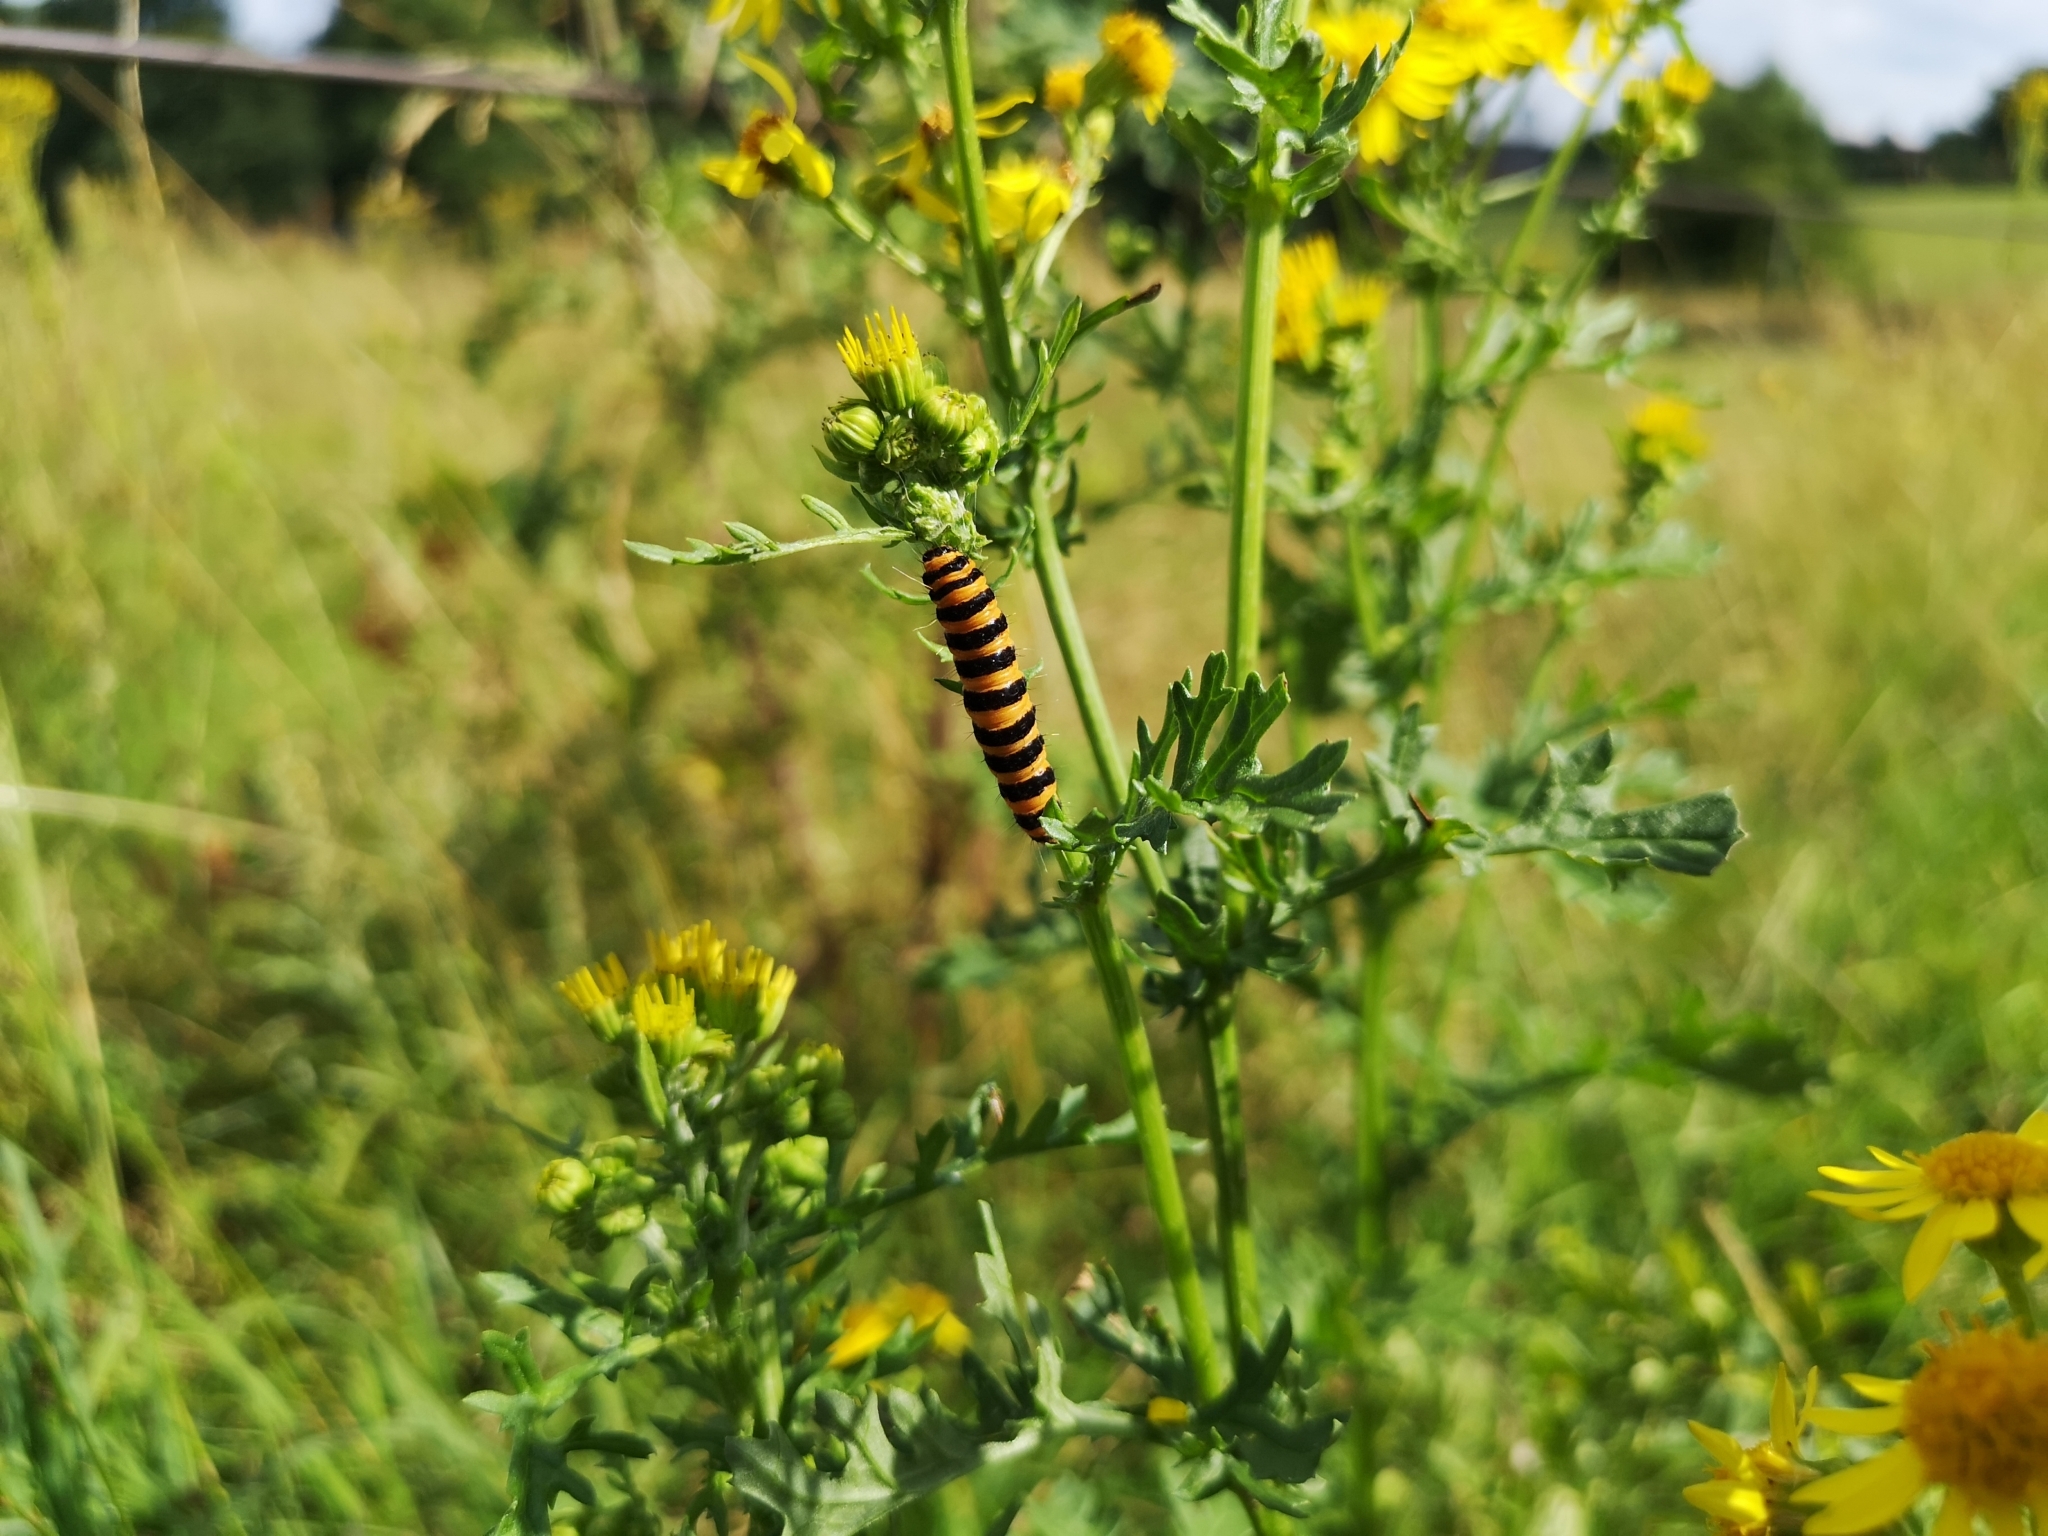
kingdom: Animalia
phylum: Arthropoda
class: Insecta
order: Lepidoptera
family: Erebidae
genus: Tyria
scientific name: Tyria jacobaeae
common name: Cinnabar
